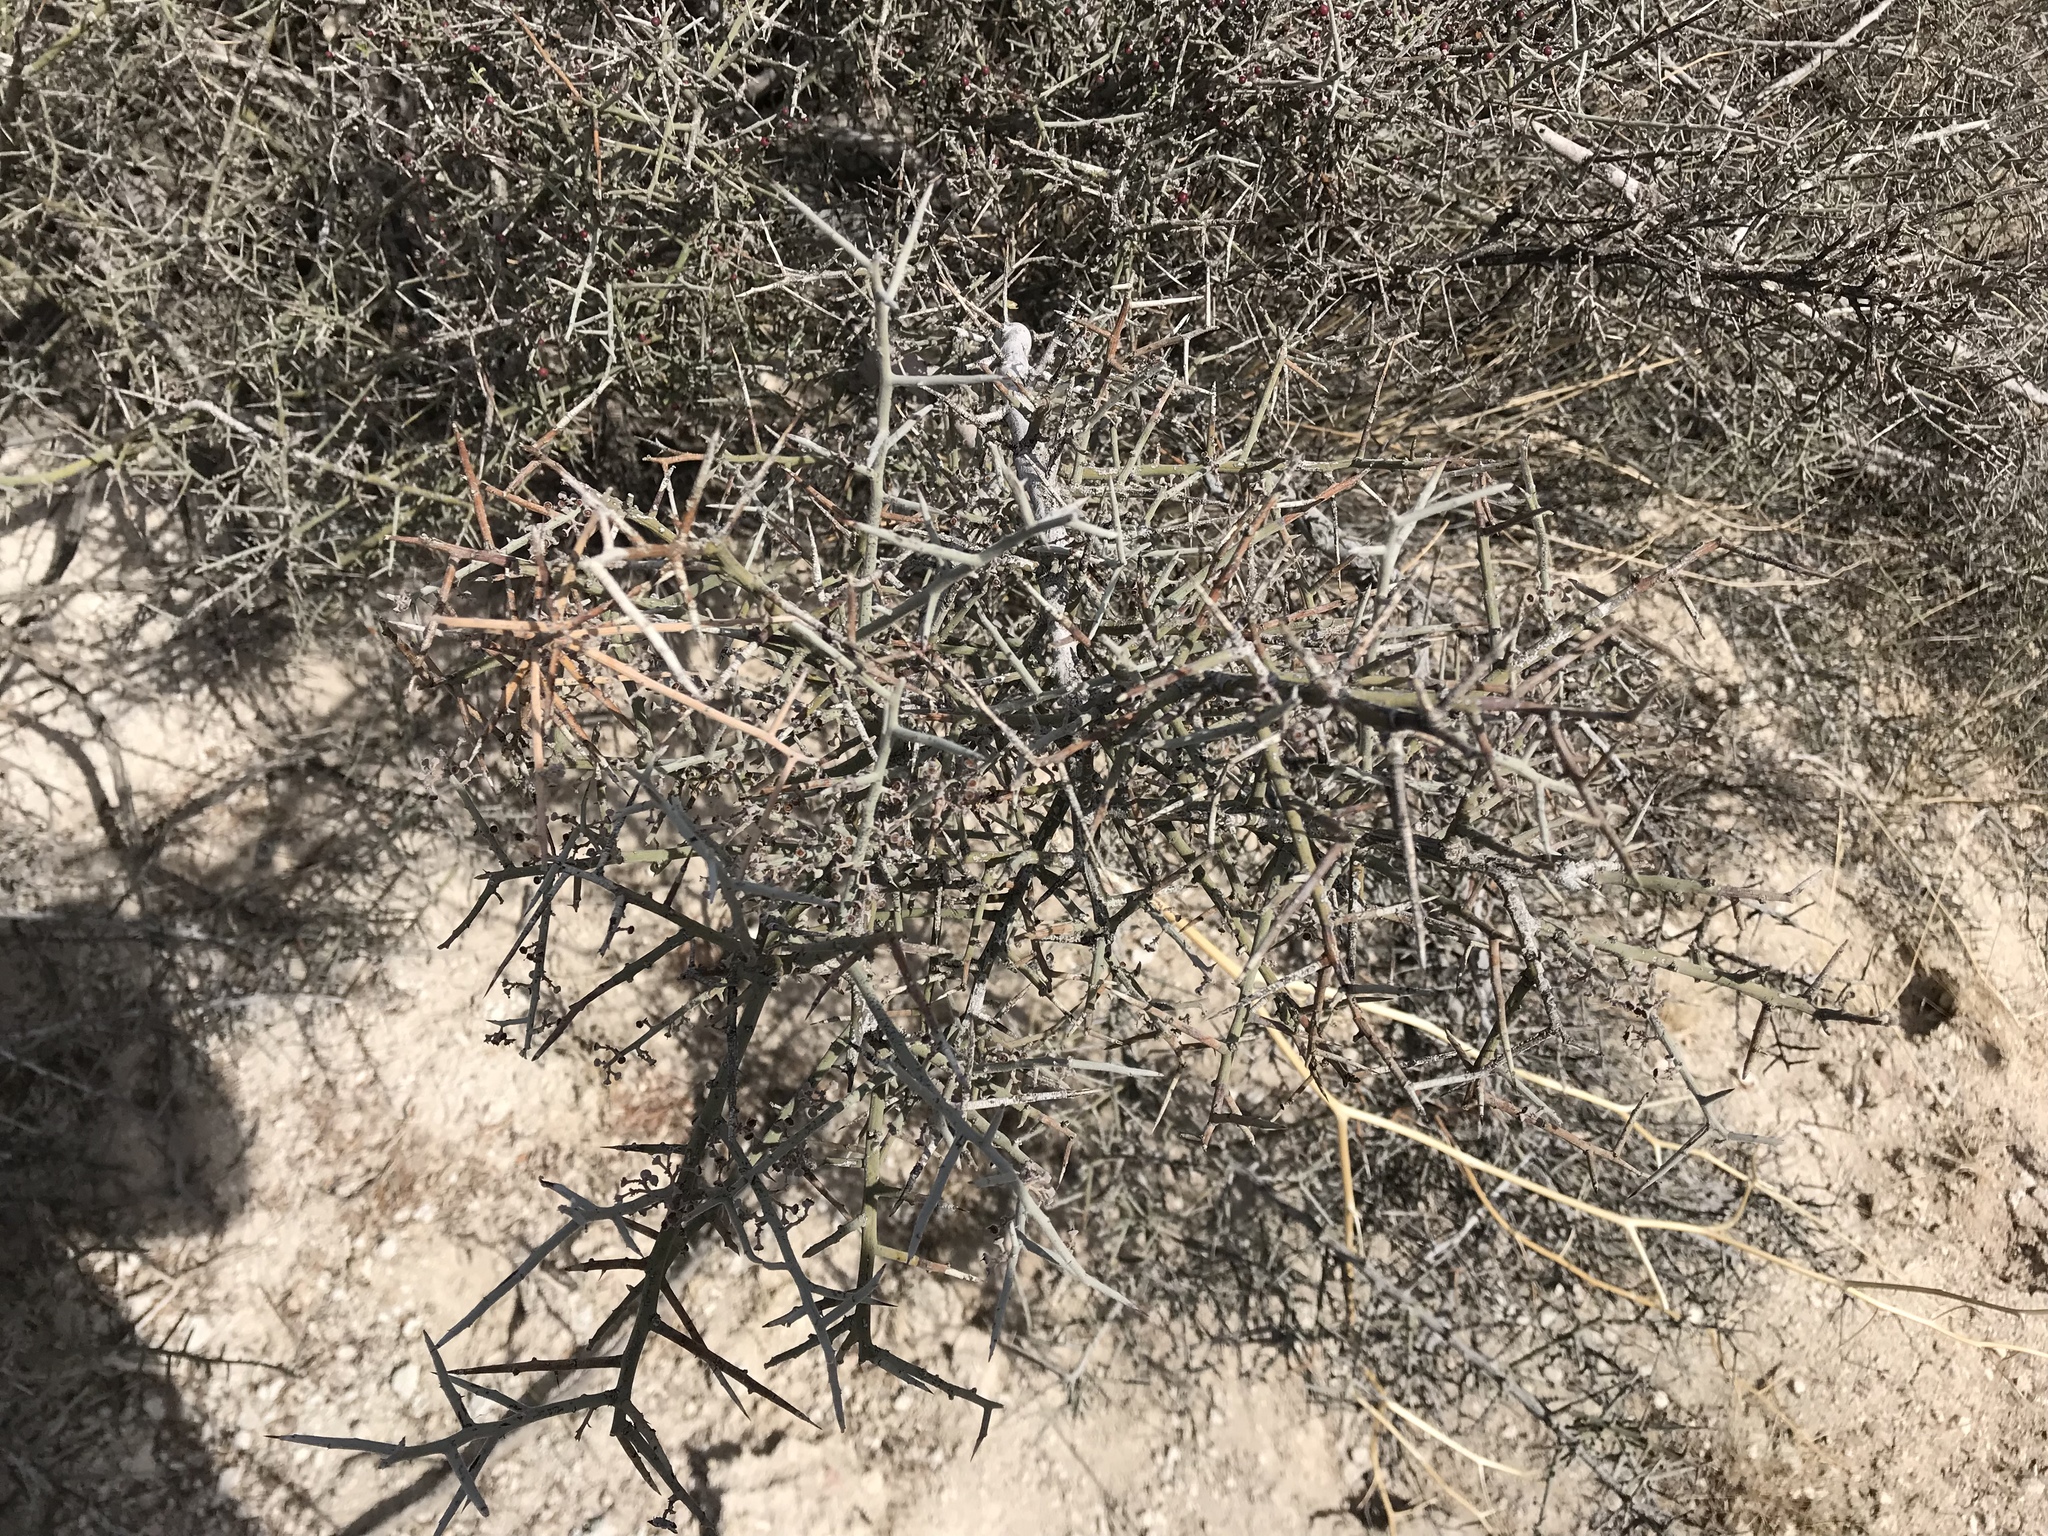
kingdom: Plantae
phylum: Tracheophyta
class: Magnoliopsida
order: Rosales
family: Rhamnaceae
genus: Sarcomphalus
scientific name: Sarcomphalus obtusifolius
